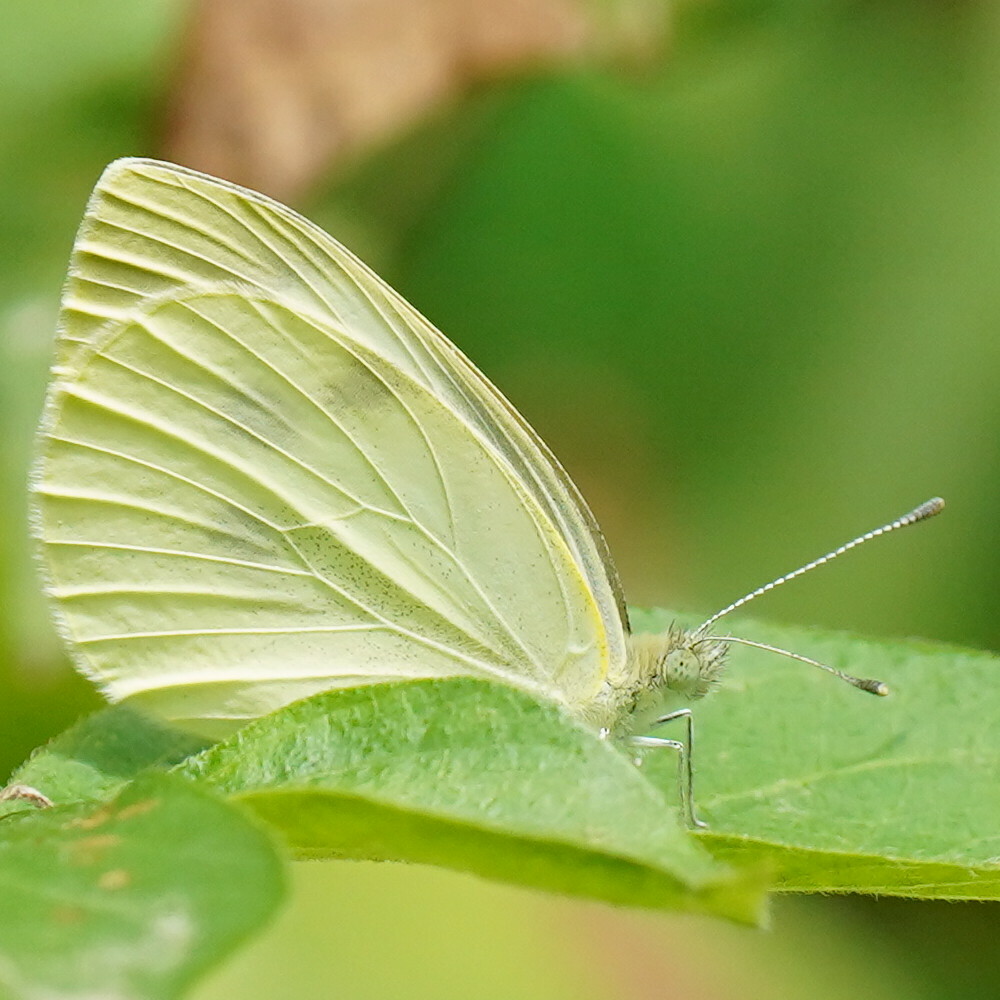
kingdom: Animalia
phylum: Arthropoda
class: Insecta
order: Lepidoptera
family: Pieridae
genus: Pieris
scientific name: Pieris rapae
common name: Small white
